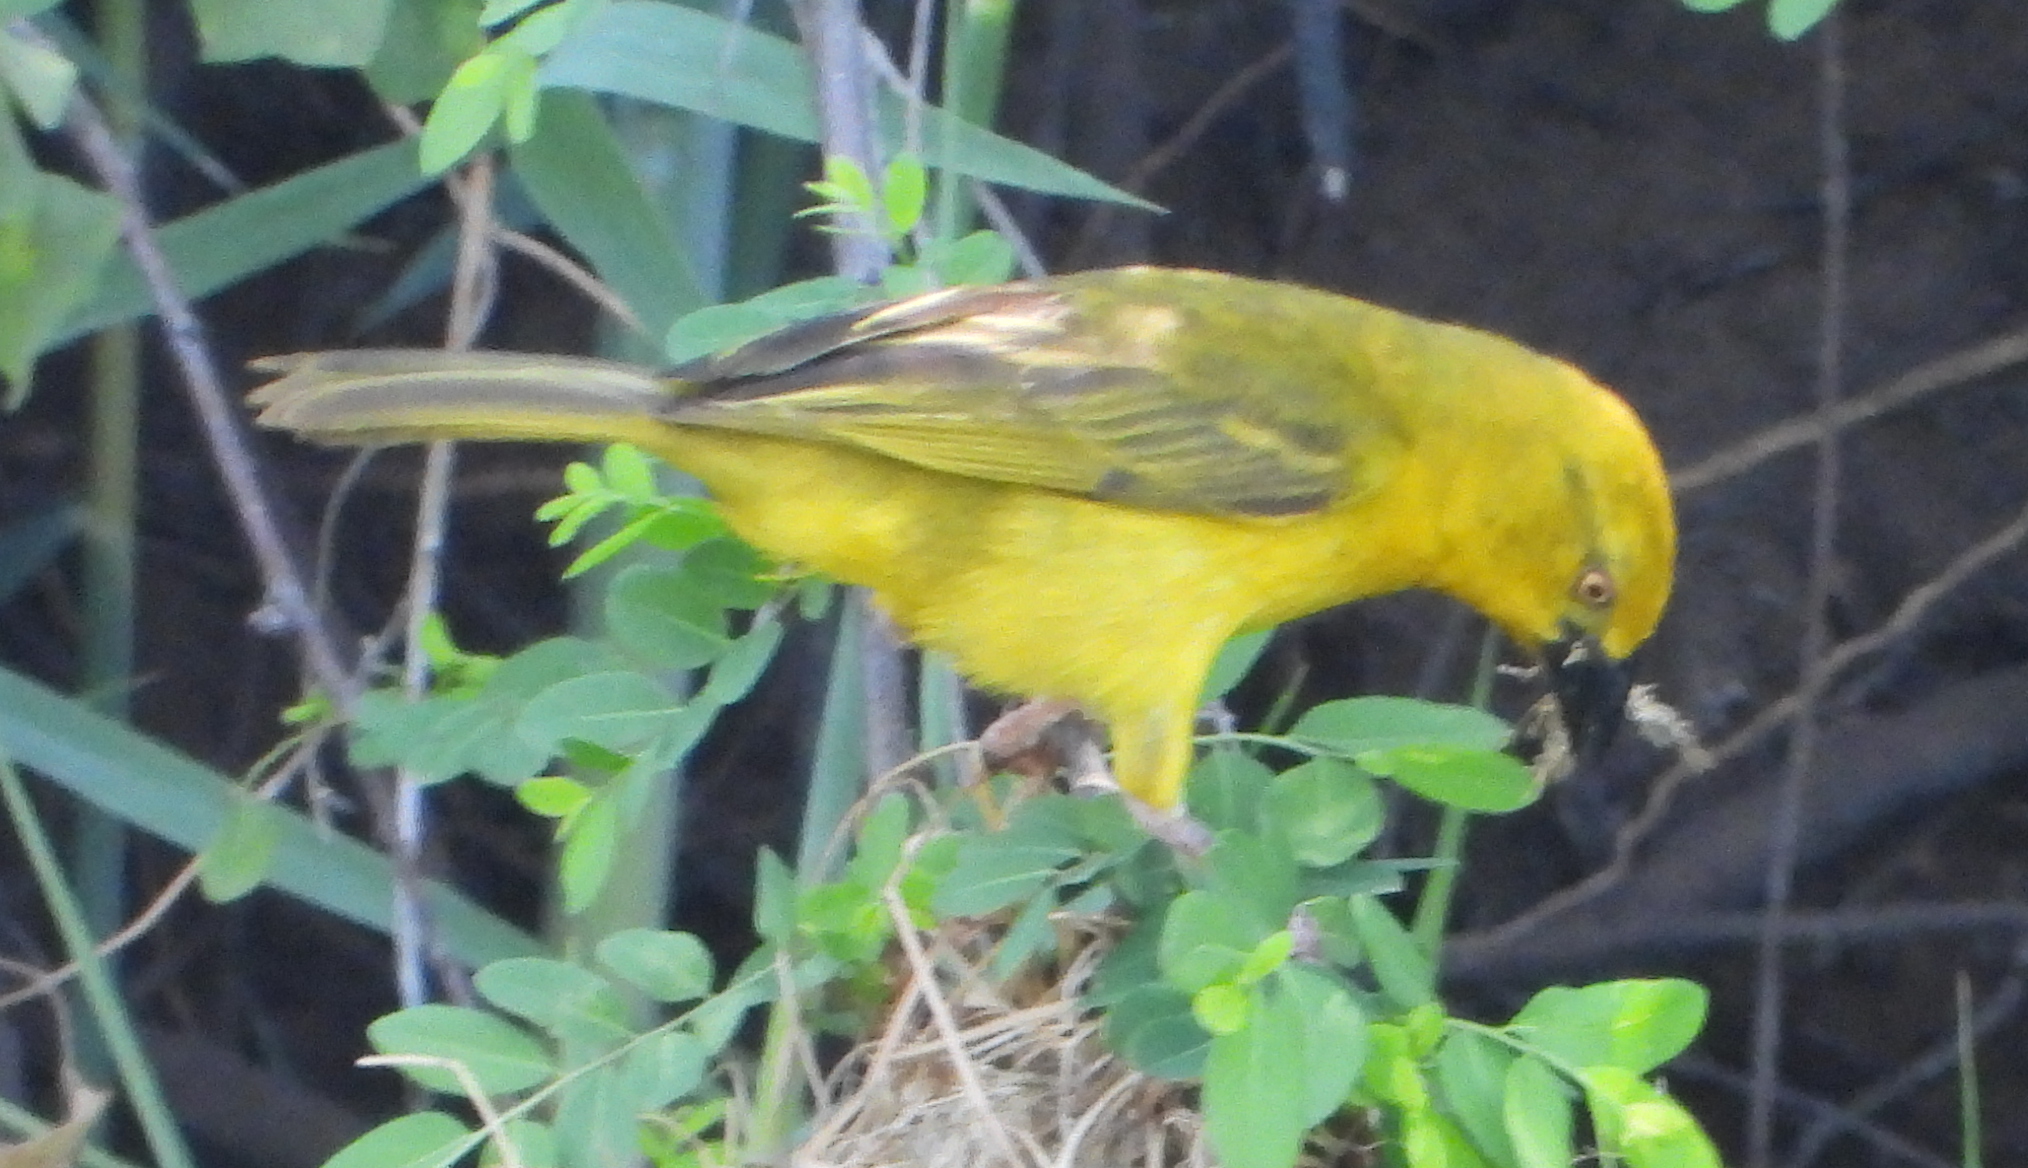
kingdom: Animalia
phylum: Chordata
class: Aves
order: Passeriformes
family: Ploceidae
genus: Ploceus
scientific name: Ploceus xanthops
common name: Holub's golden weaver
